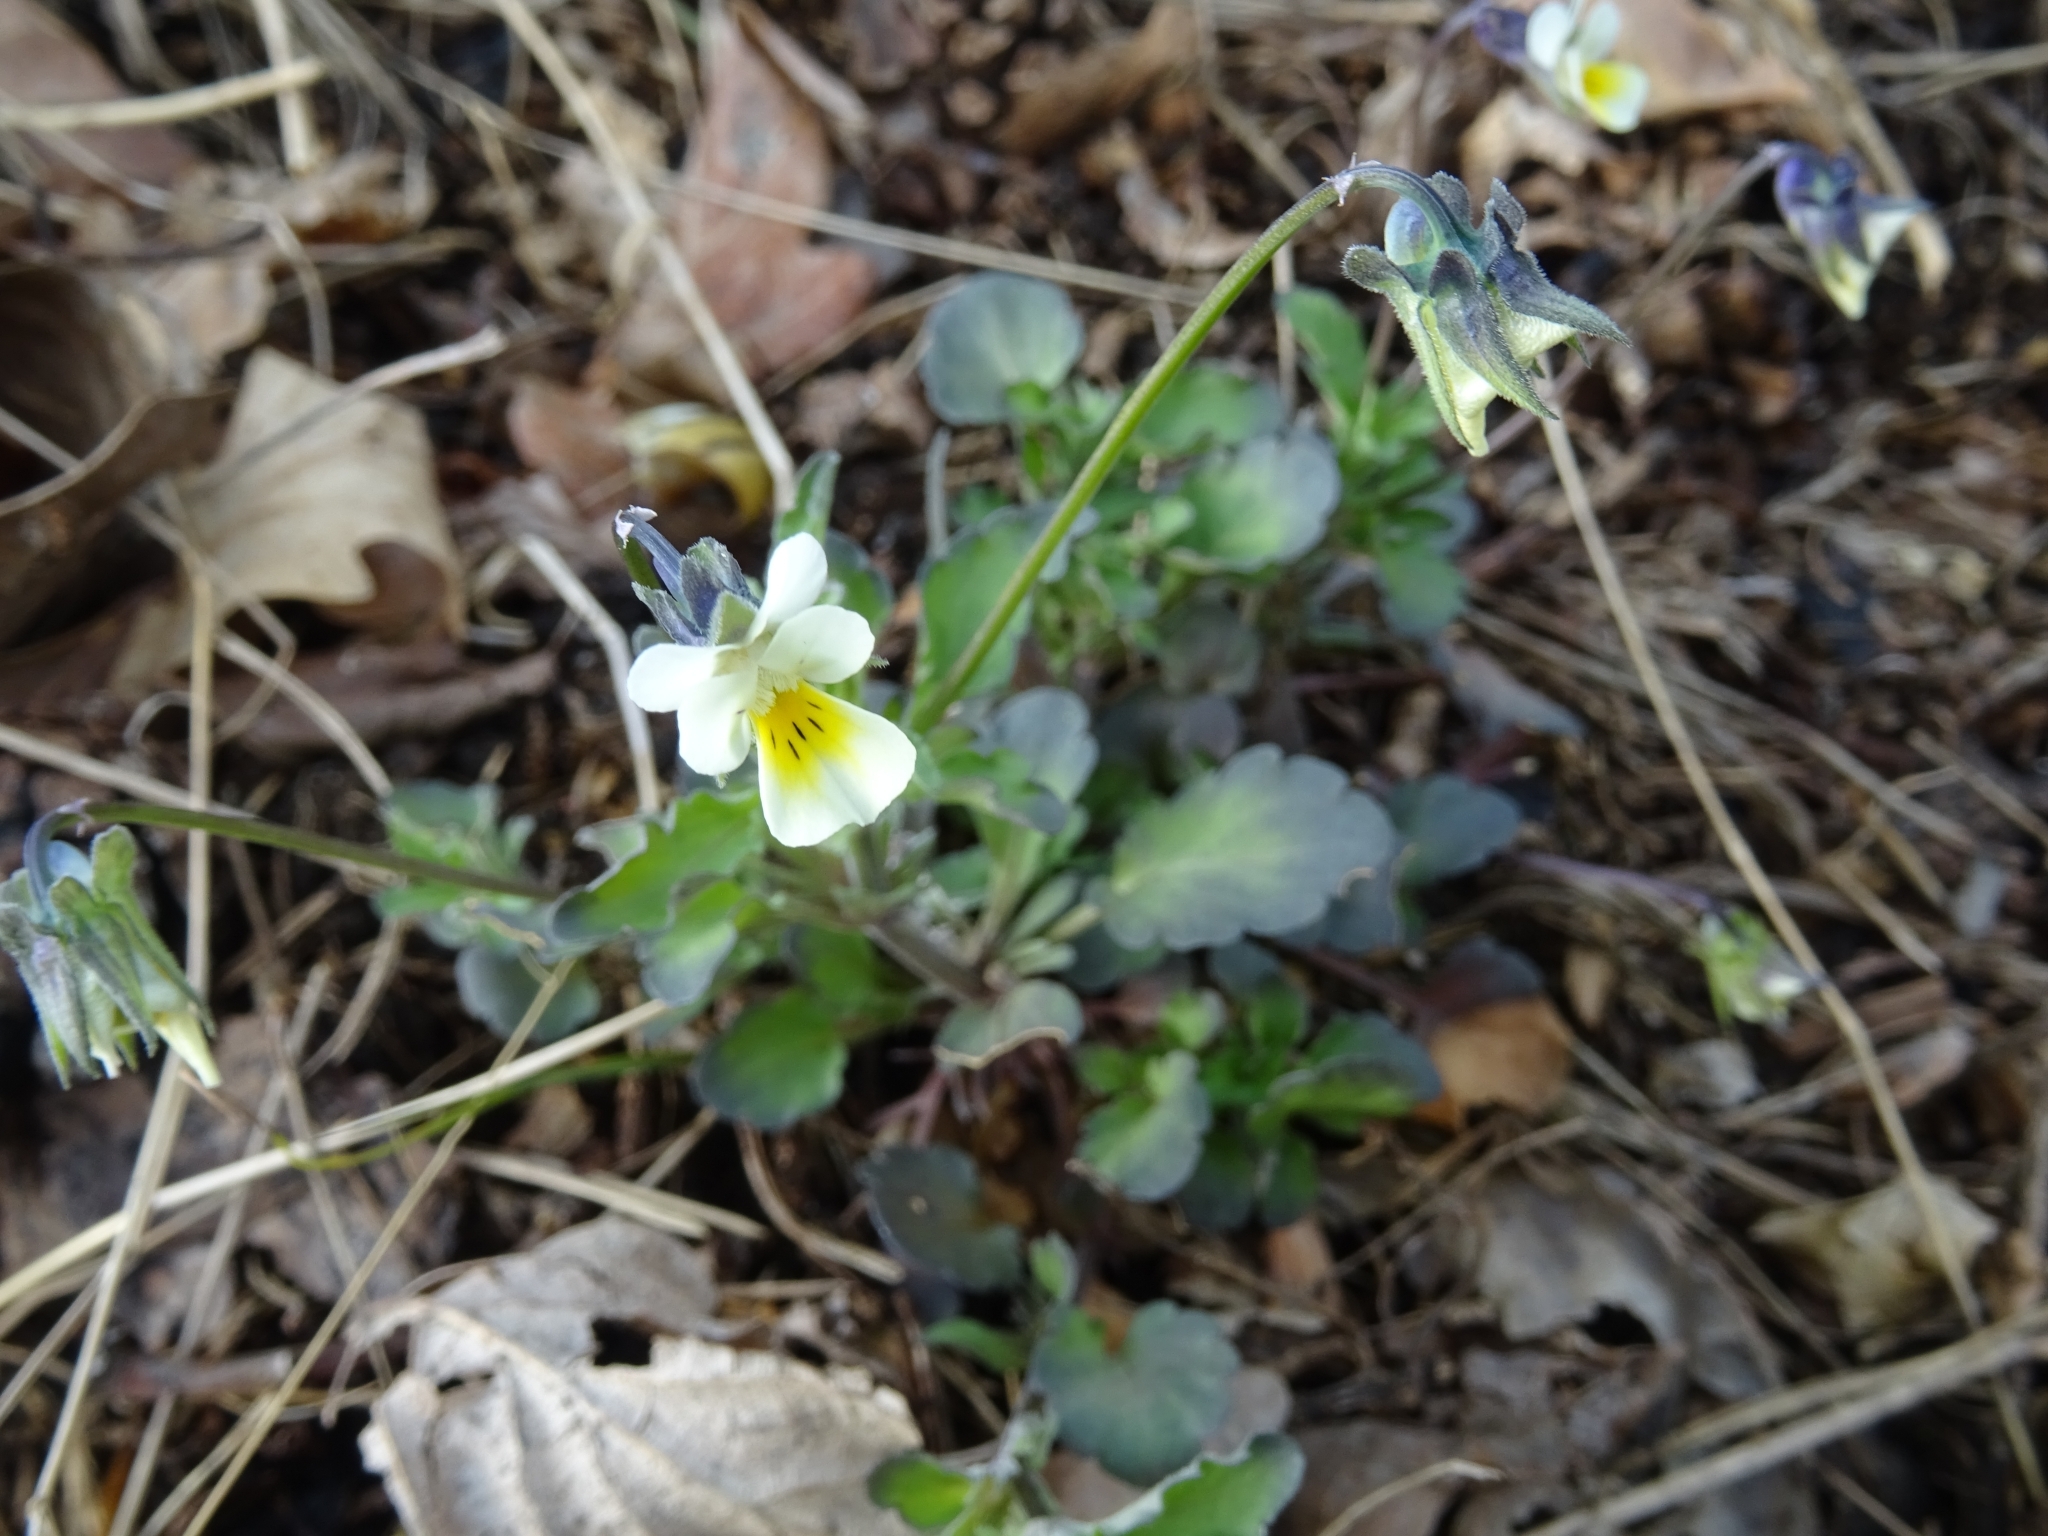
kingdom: Plantae
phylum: Tracheophyta
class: Magnoliopsida
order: Malpighiales
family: Violaceae
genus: Viola
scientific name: Viola arvensis
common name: Field pansy
